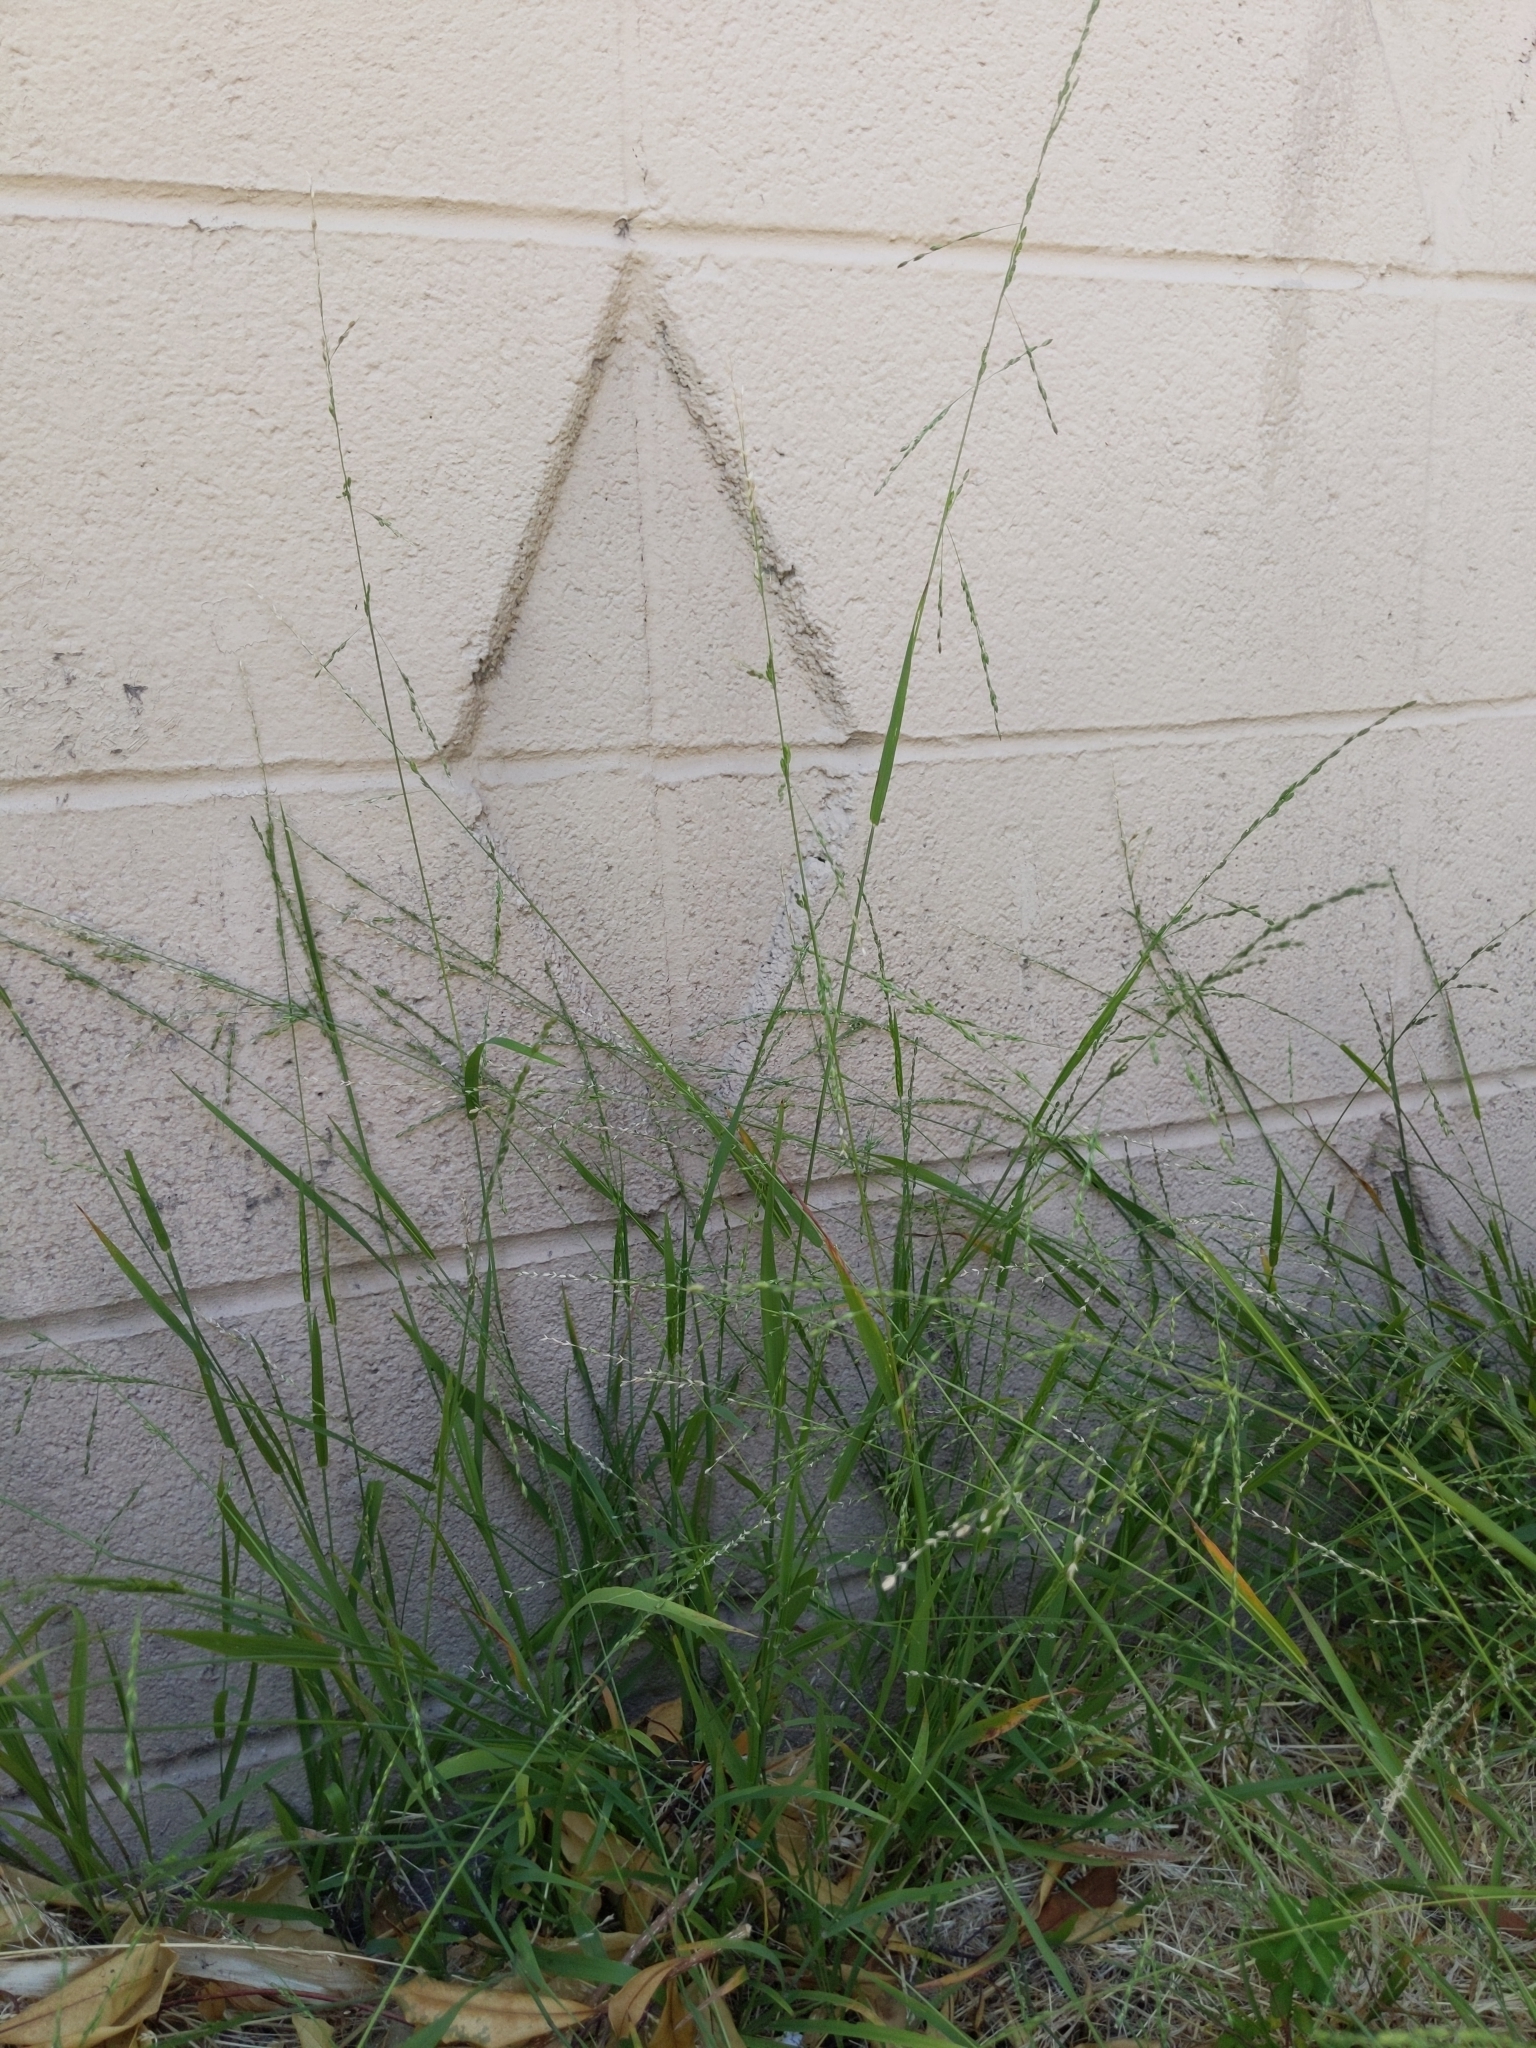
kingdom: Plantae
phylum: Tracheophyta
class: Liliopsida
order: Poales
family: Poaceae
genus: Ehrharta
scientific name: Ehrharta erecta
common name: Panic veldtgrass
